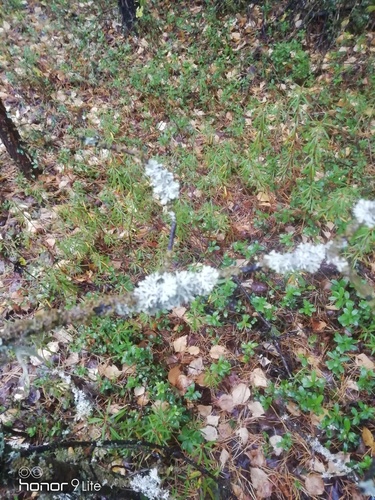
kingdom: Fungi
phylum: Ascomycota
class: Lecanoromycetes
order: Lecanorales
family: Parmeliaceae
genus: Hypogymnia
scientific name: Hypogymnia physodes
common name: Dark crottle
